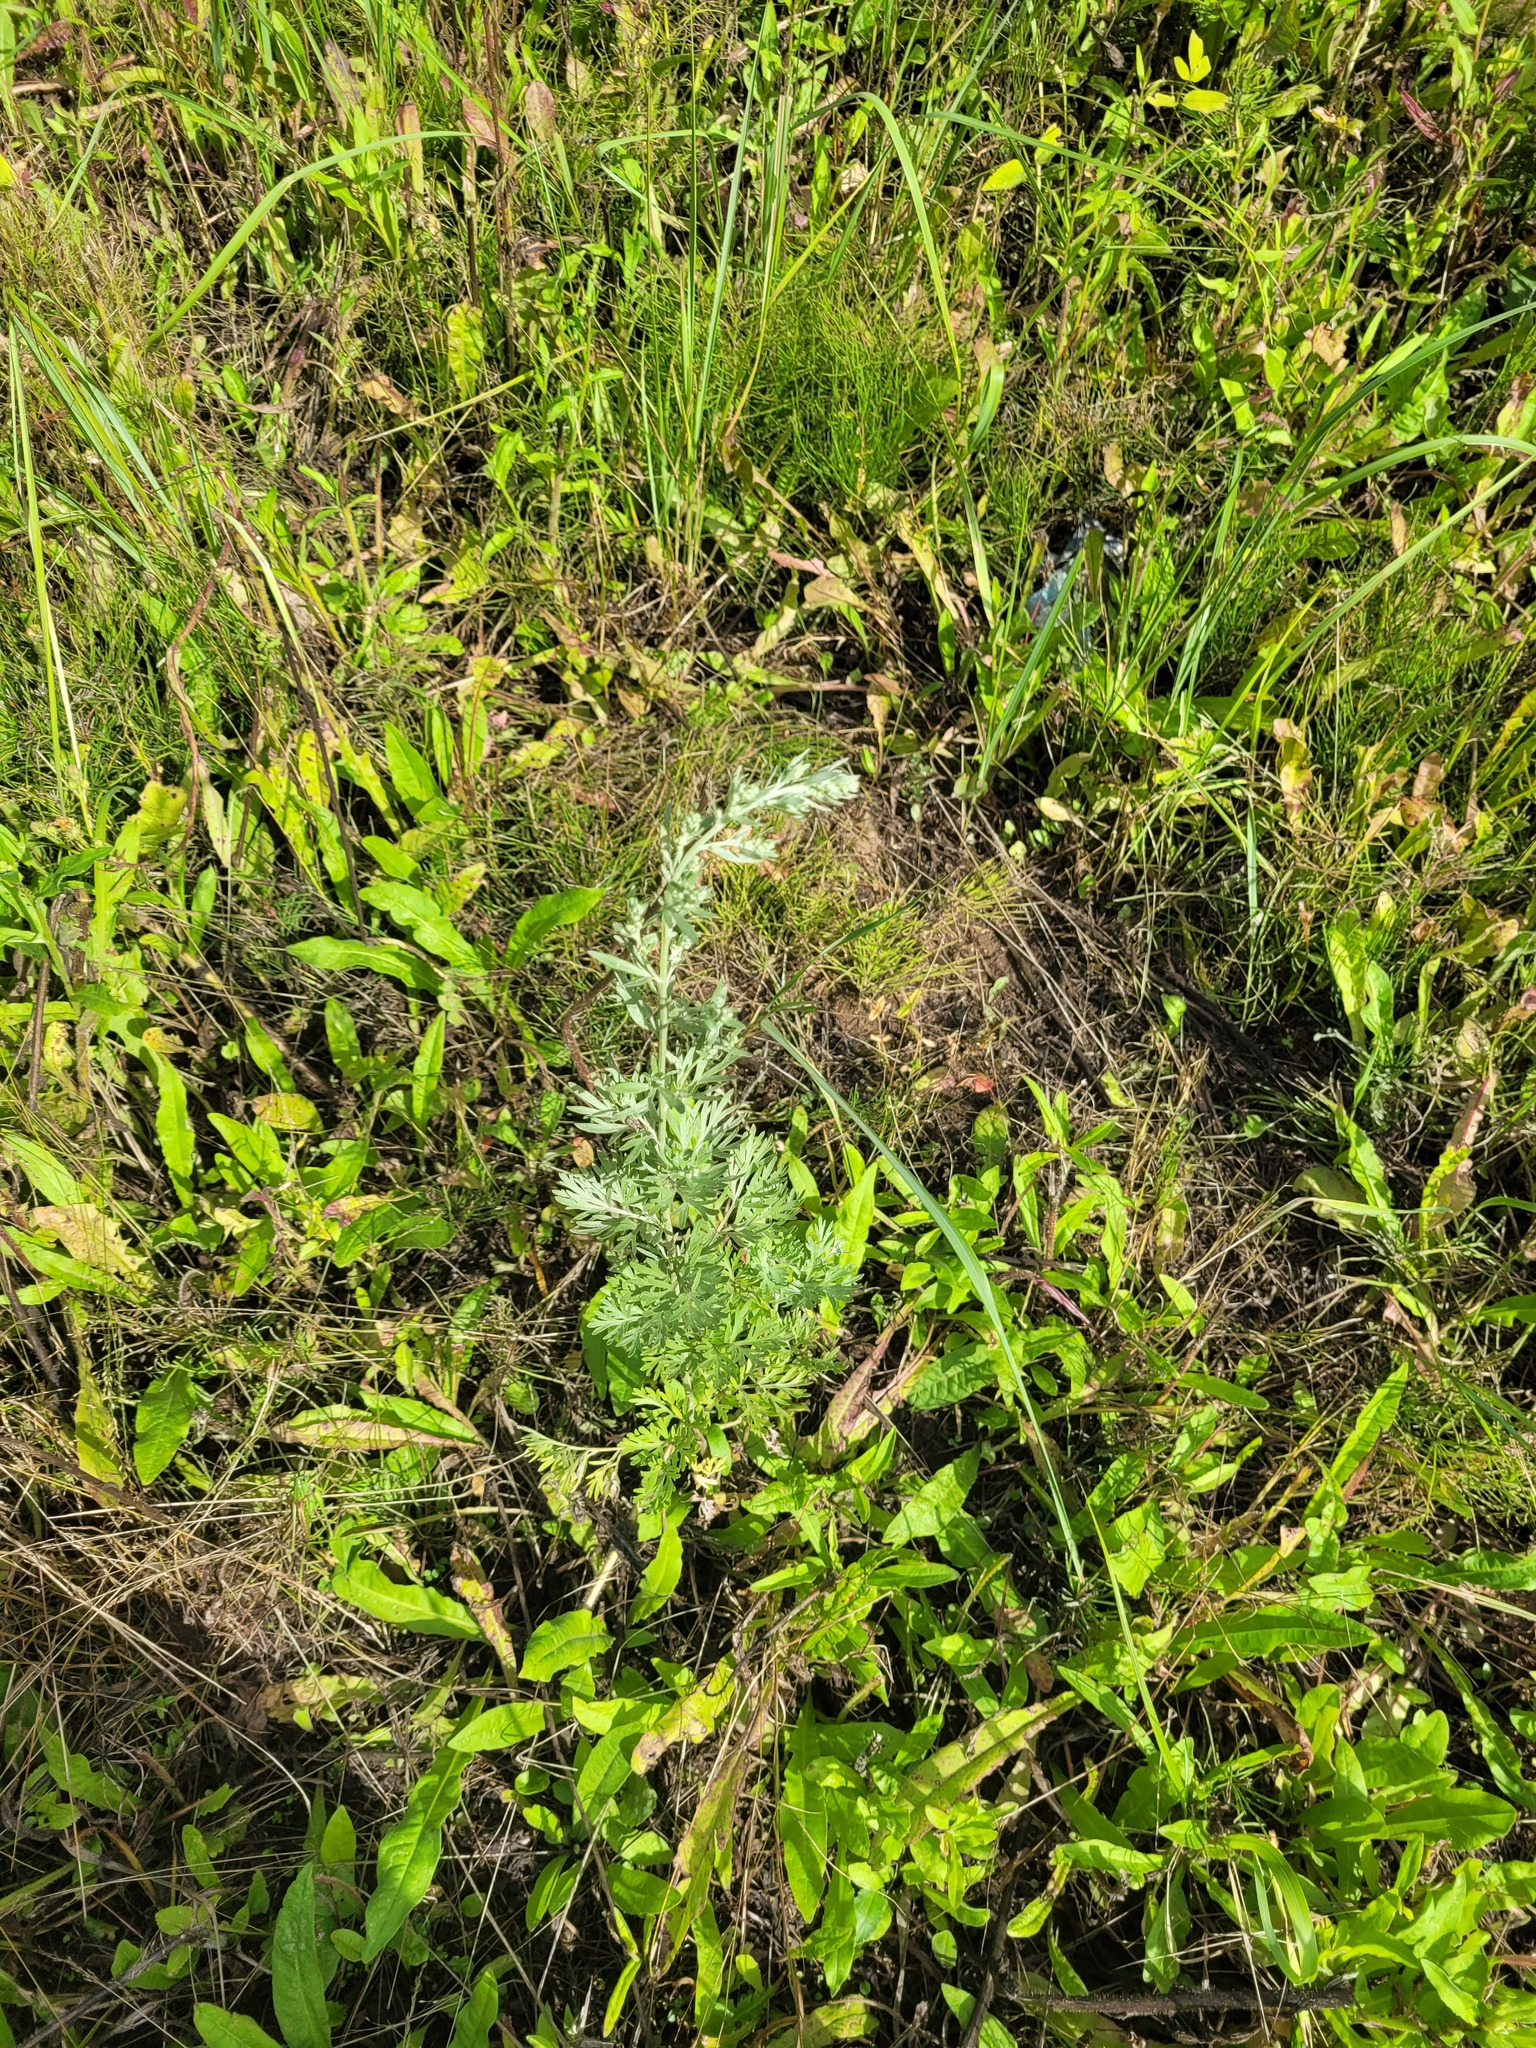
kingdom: Plantae
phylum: Tracheophyta
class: Magnoliopsida
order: Asterales
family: Asteraceae
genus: Artemisia
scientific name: Artemisia absinthium
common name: Wormwood
